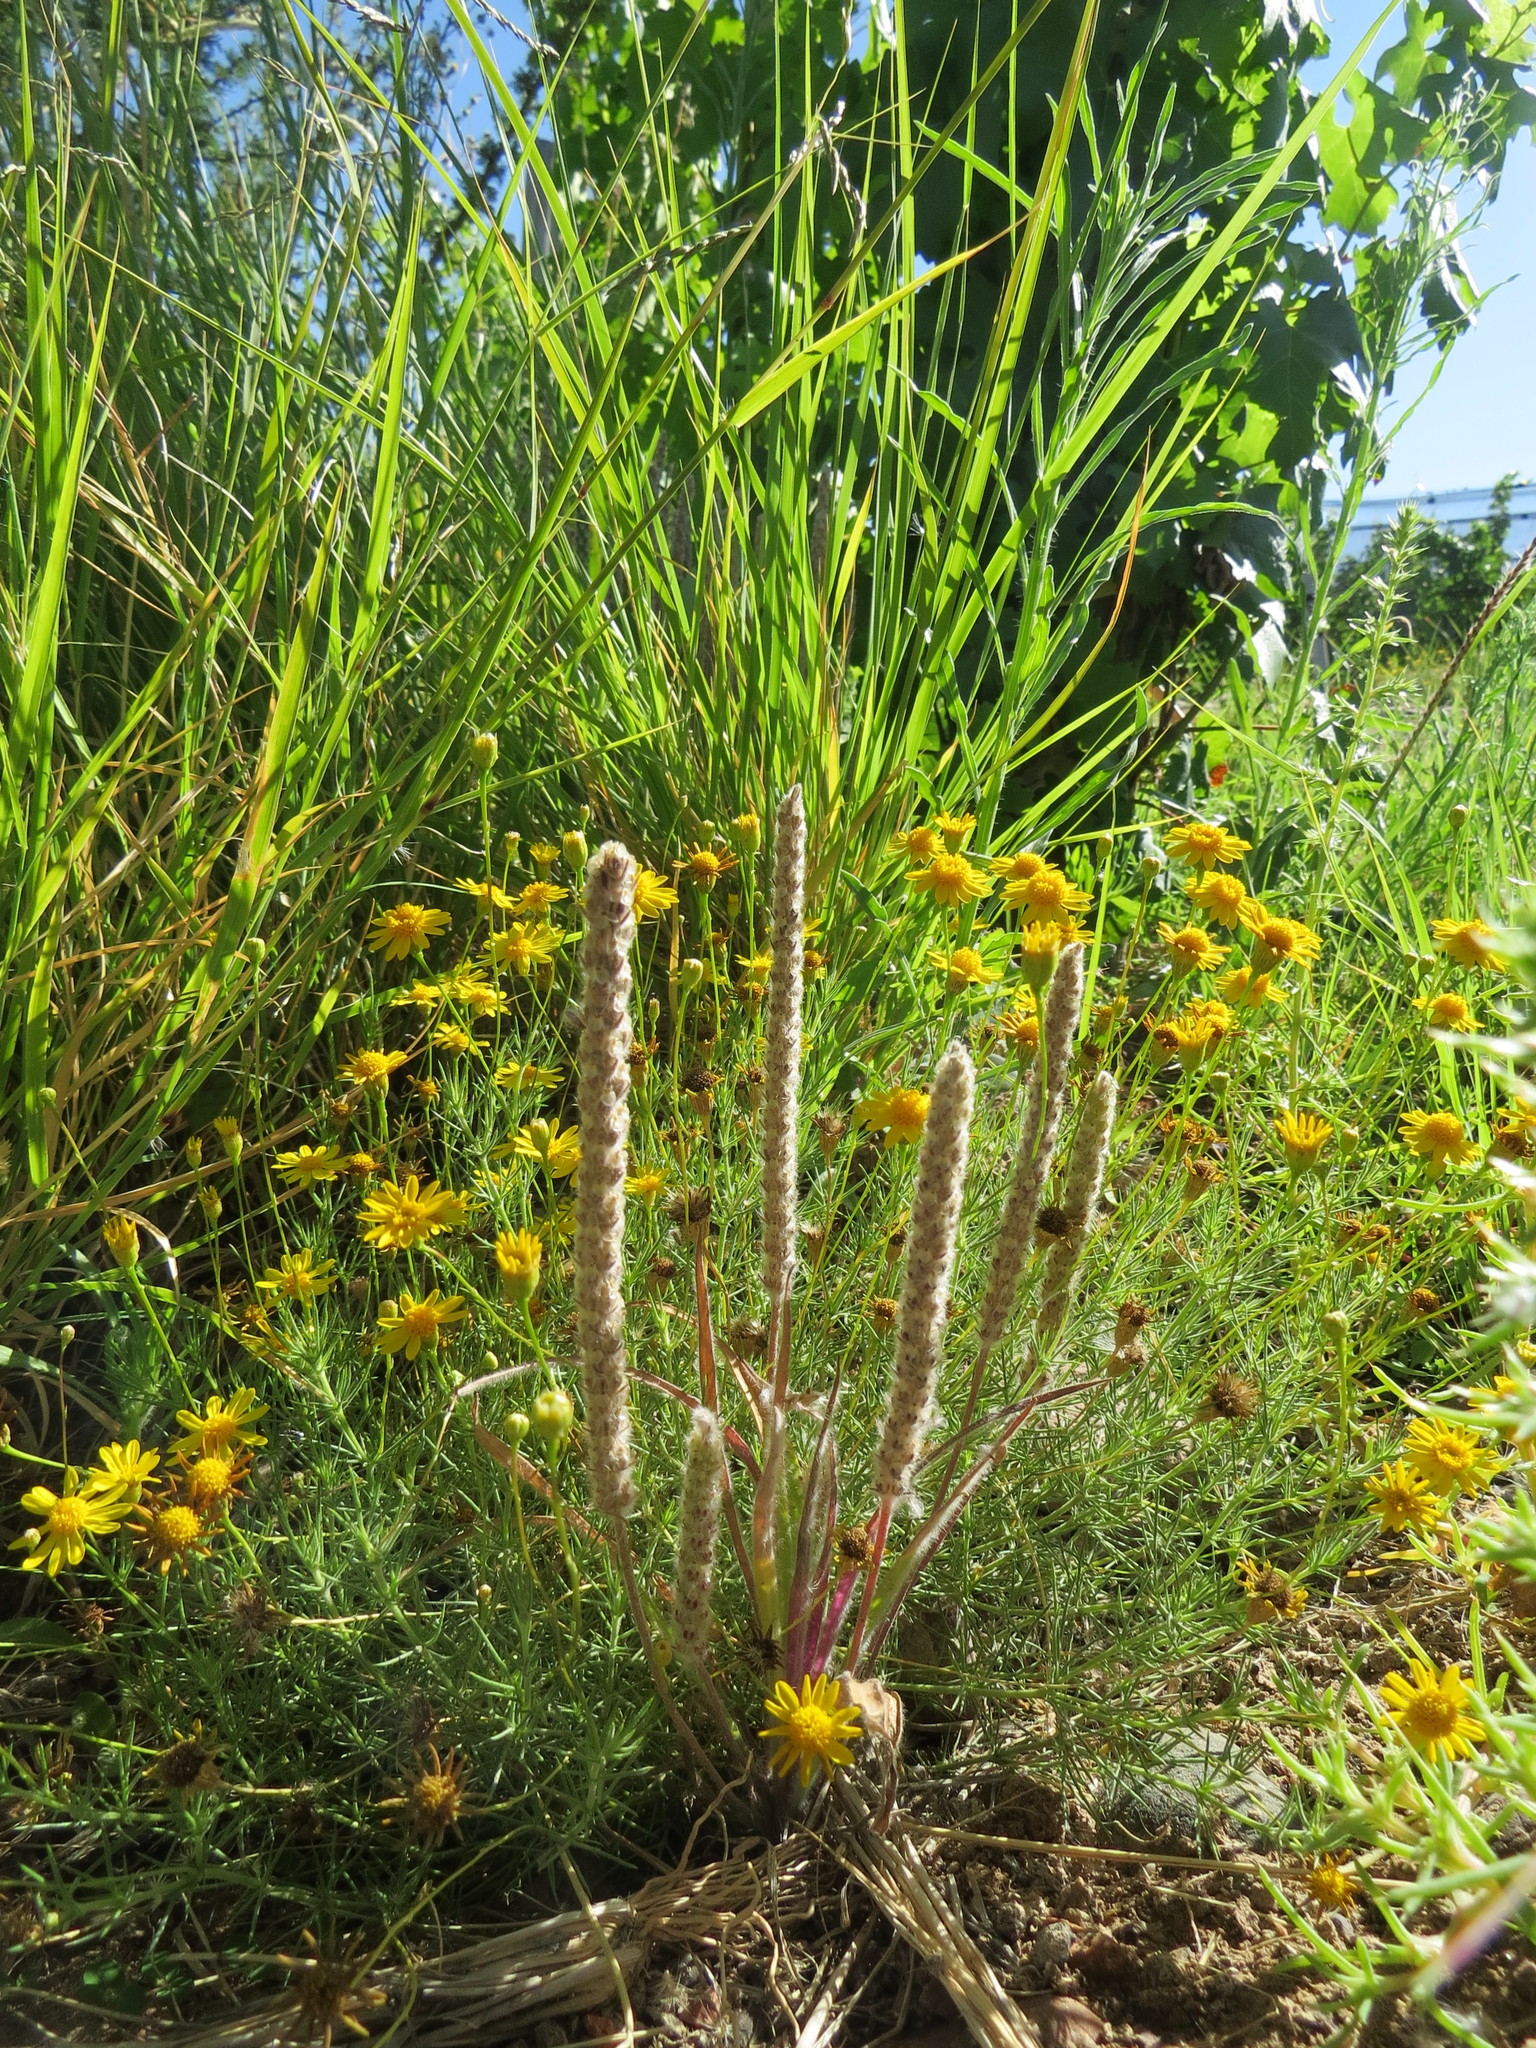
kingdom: Plantae
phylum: Tracheophyta
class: Magnoliopsida
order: Lamiales
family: Plantaginaceae
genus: Plantago
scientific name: Plantago patagonica
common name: Patagonia indian-wheat
